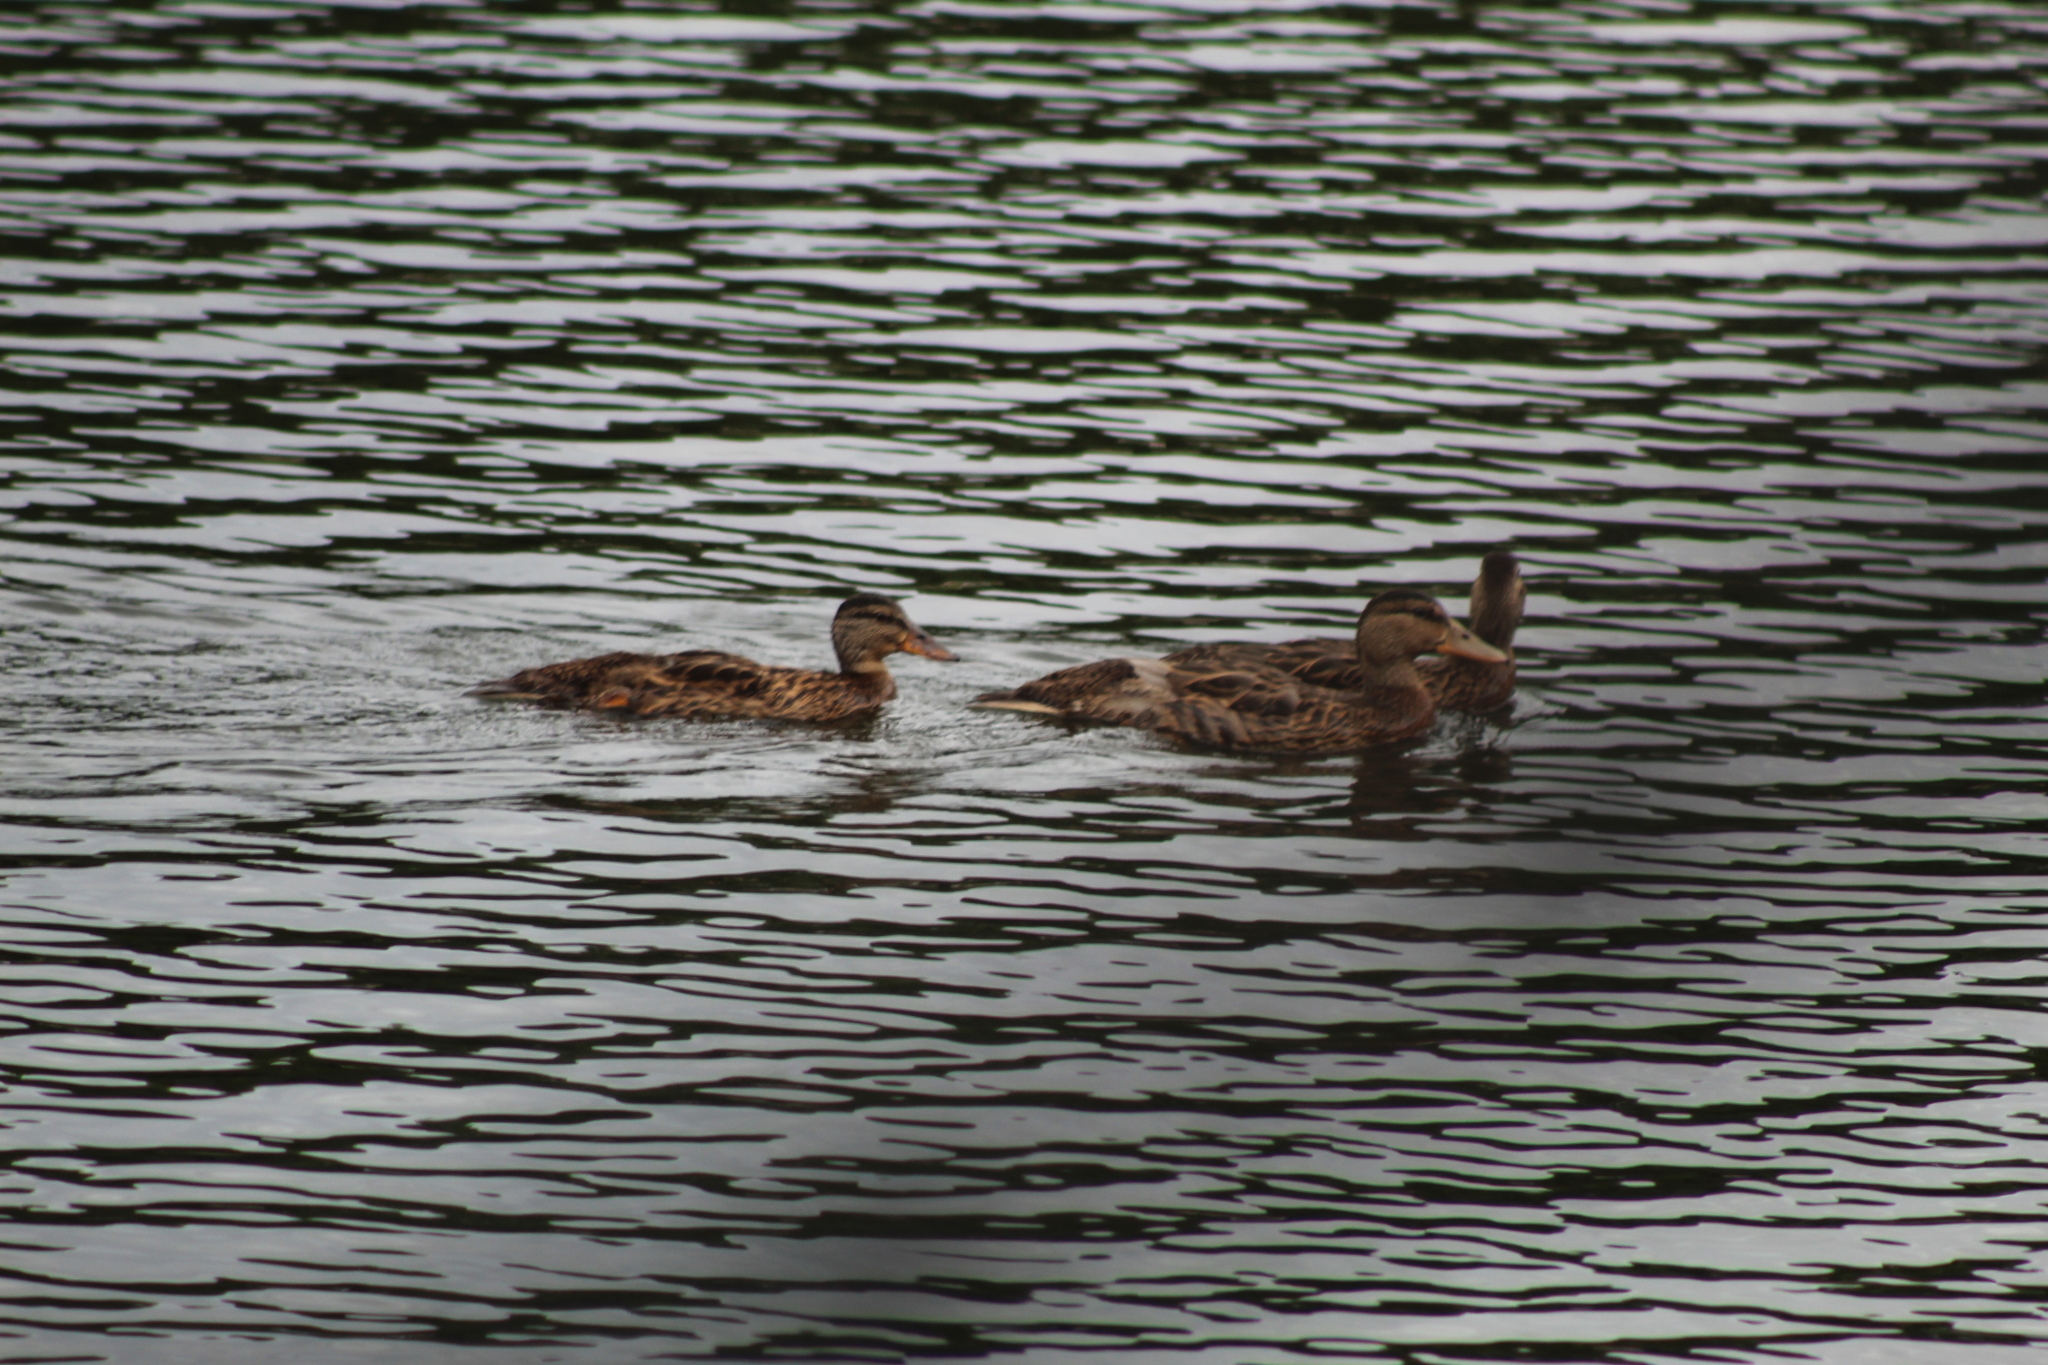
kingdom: Animalia
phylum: Chordata
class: Aves
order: Anseriformes
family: Anatidae
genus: Anas
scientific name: Anas platyrhynchos
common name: Mallard
